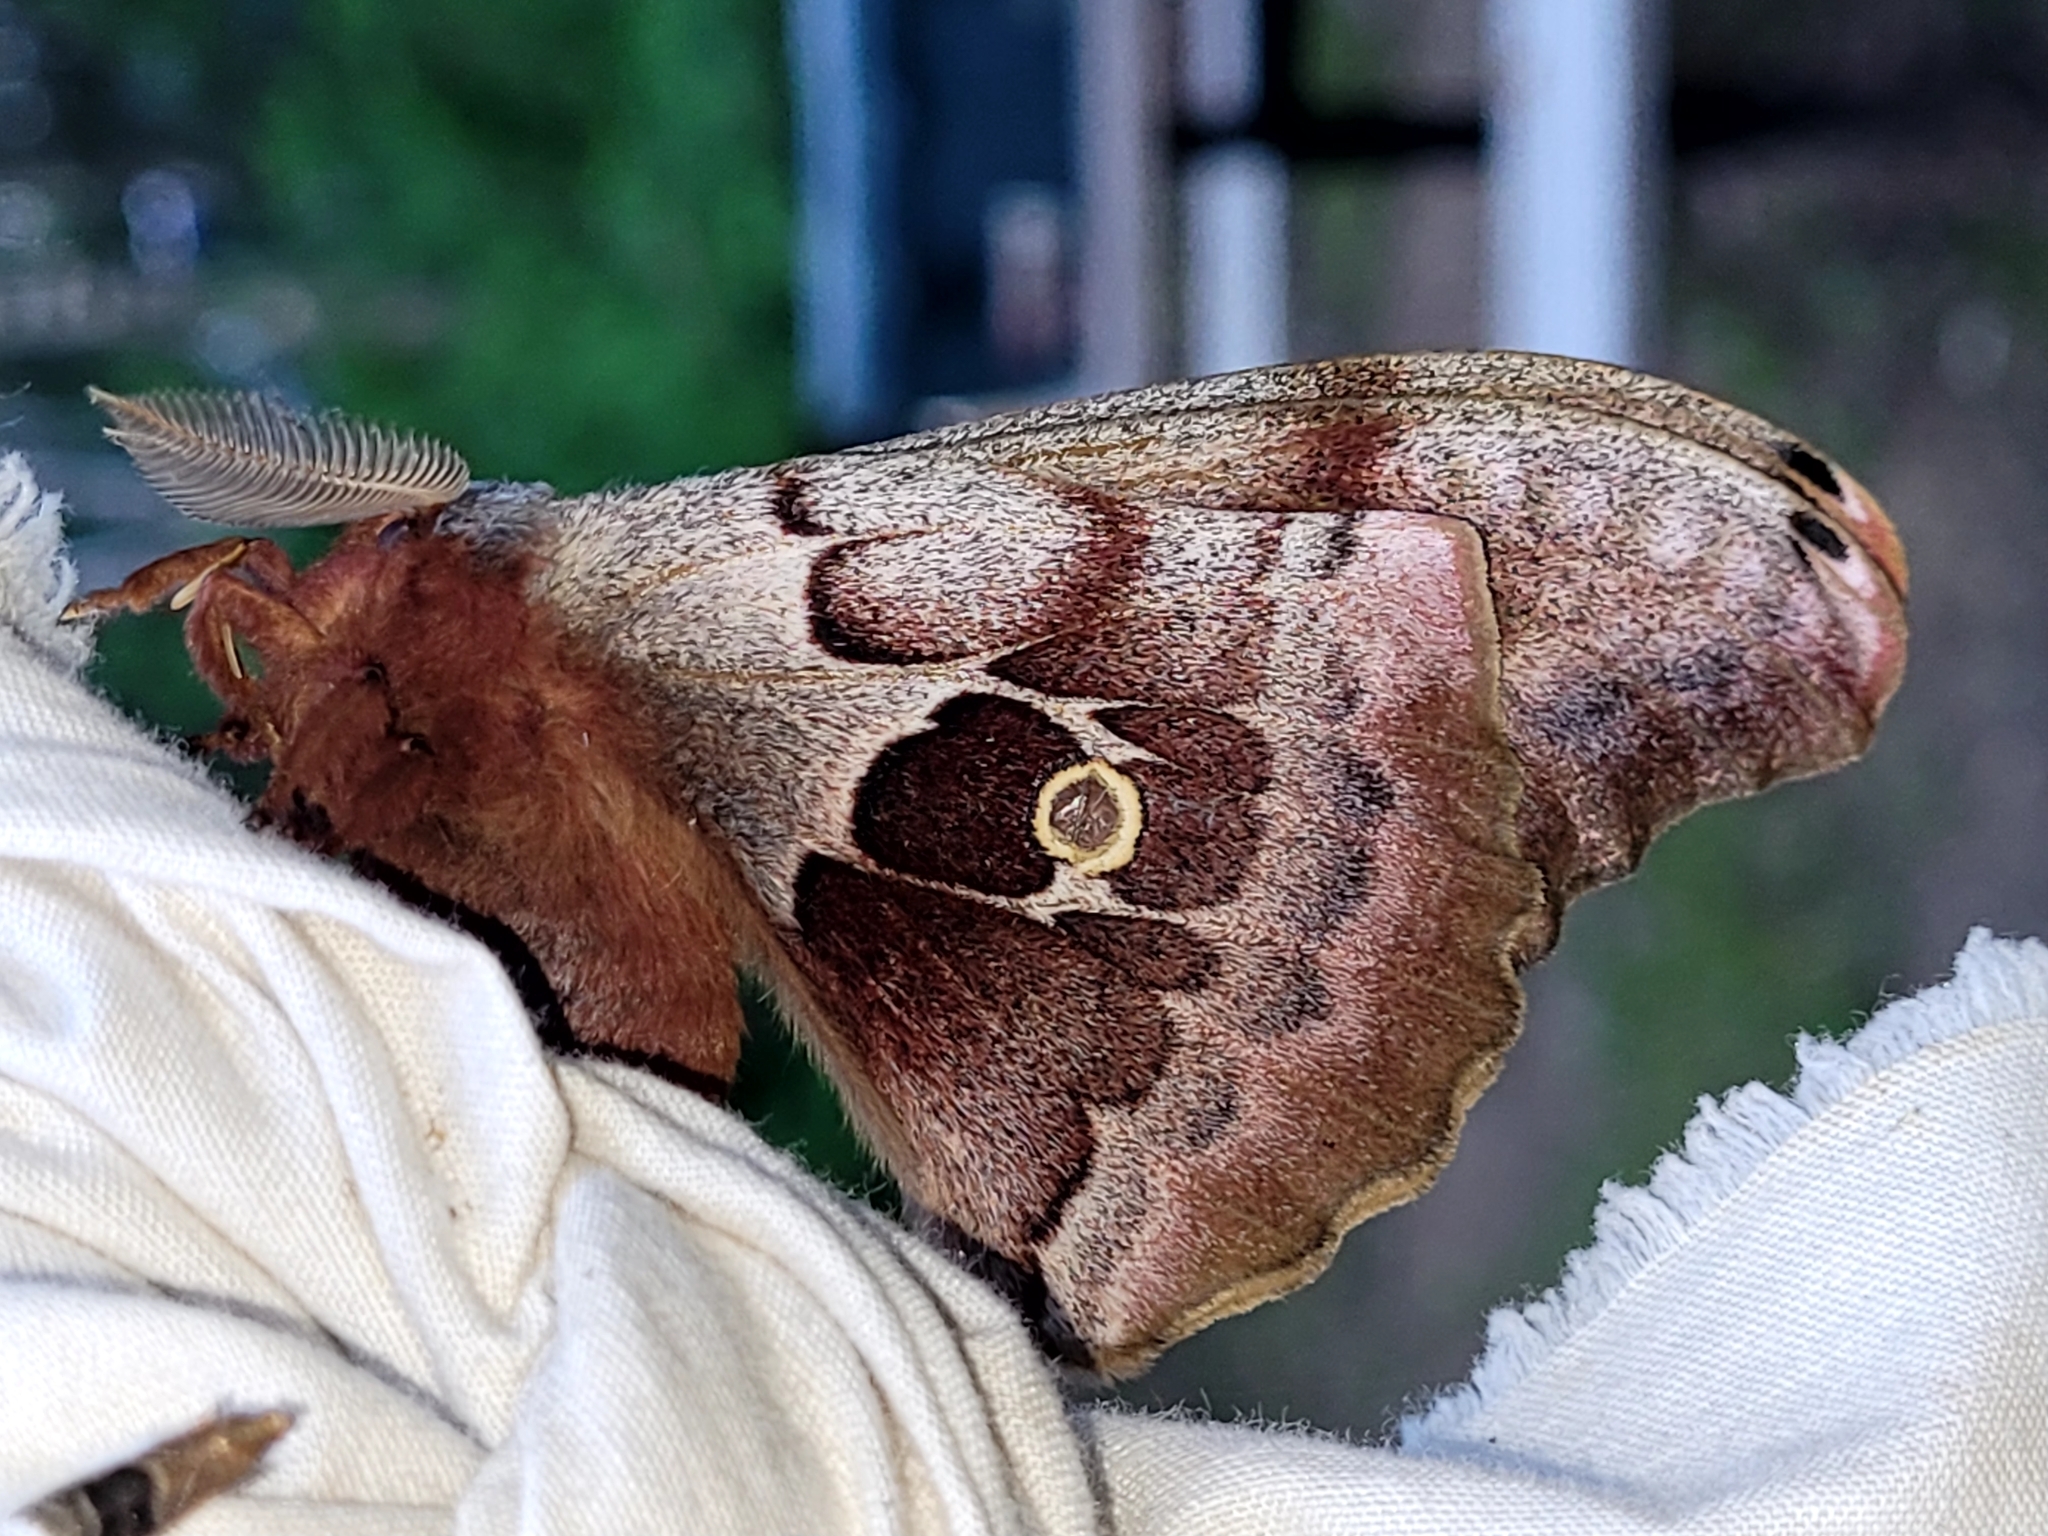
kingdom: Animalia
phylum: Arthropoda
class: Insecta
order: Lepidoptera
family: Saturniidae
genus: Antheraea
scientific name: Antheraea polyphemus
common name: Polyphemus moth
